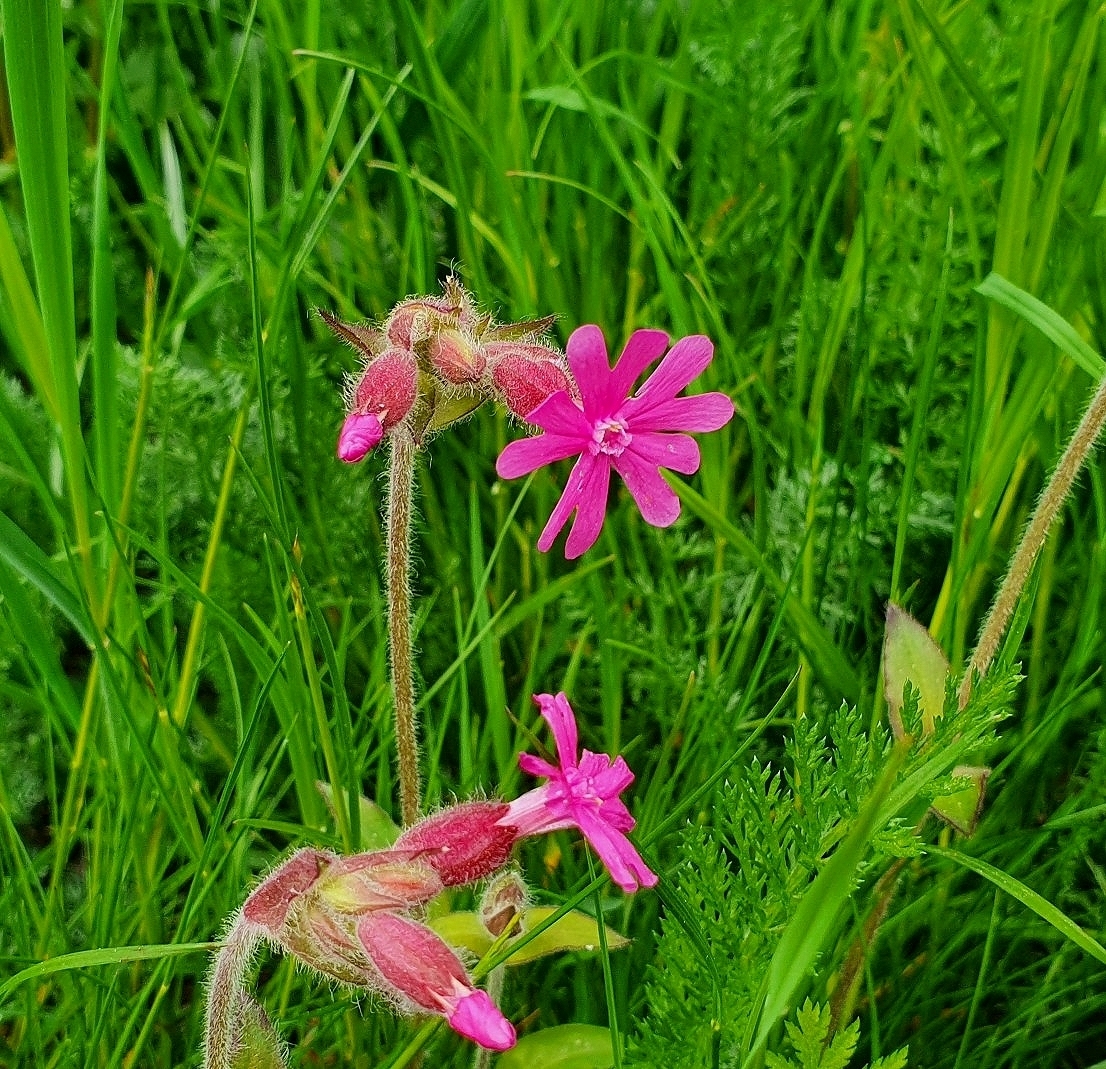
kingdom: Plantae
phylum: Tracheophyta
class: Magnoliopsida
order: Caryophyllales
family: Caryophyllaceae
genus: Silene
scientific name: Silene dioica
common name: Red campion
